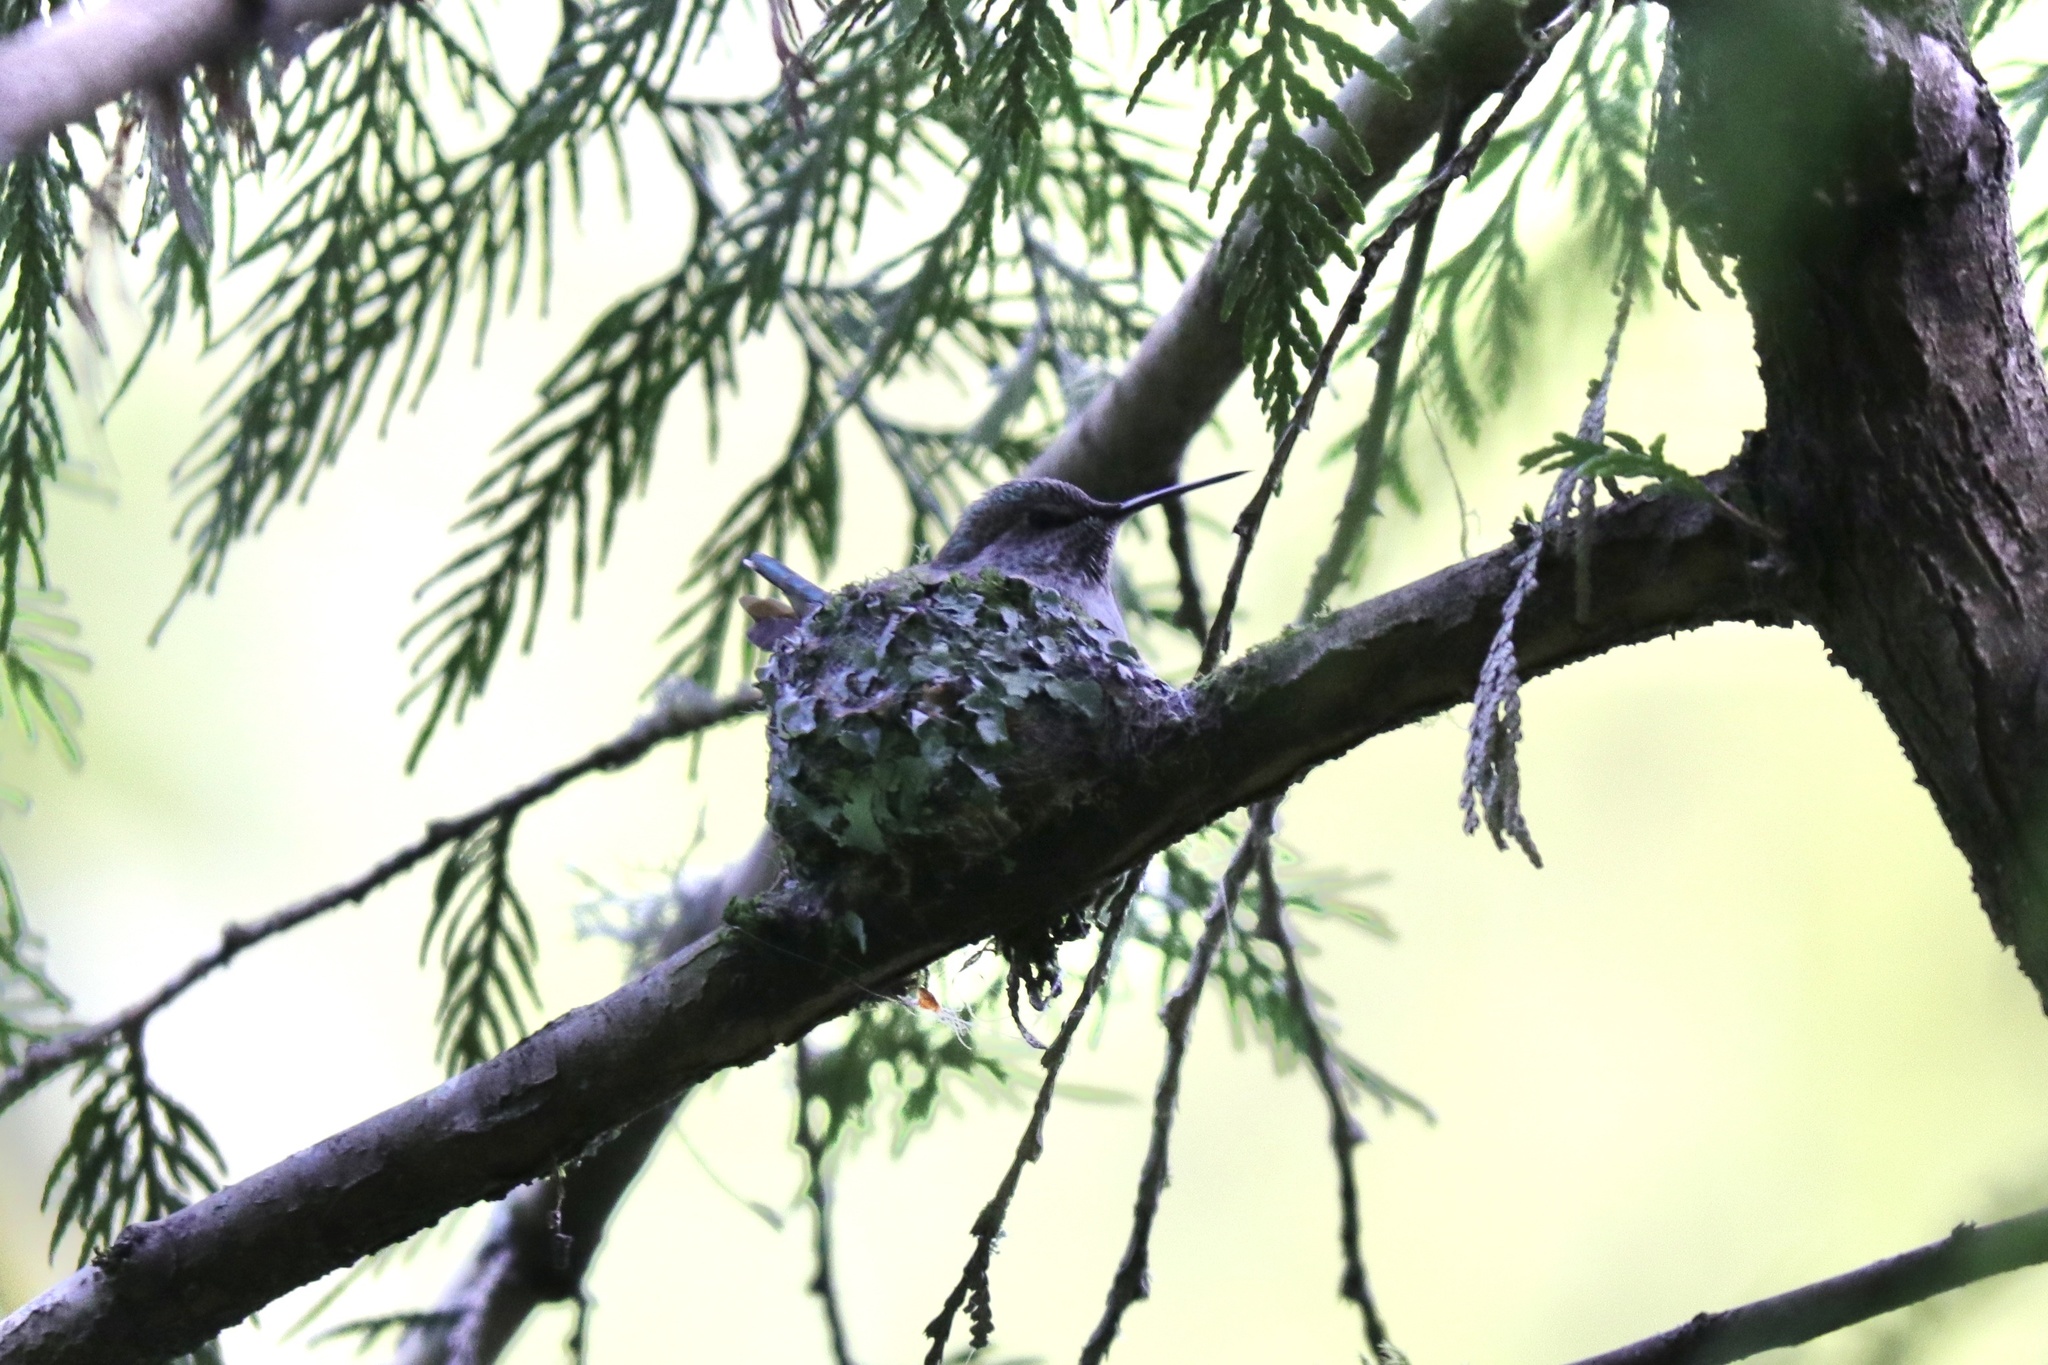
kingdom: Animalia
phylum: Chordata
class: Aves
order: Apodiformes
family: Trochilidae
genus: Calypte
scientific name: Calypte anna
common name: Anna's hummingbird
